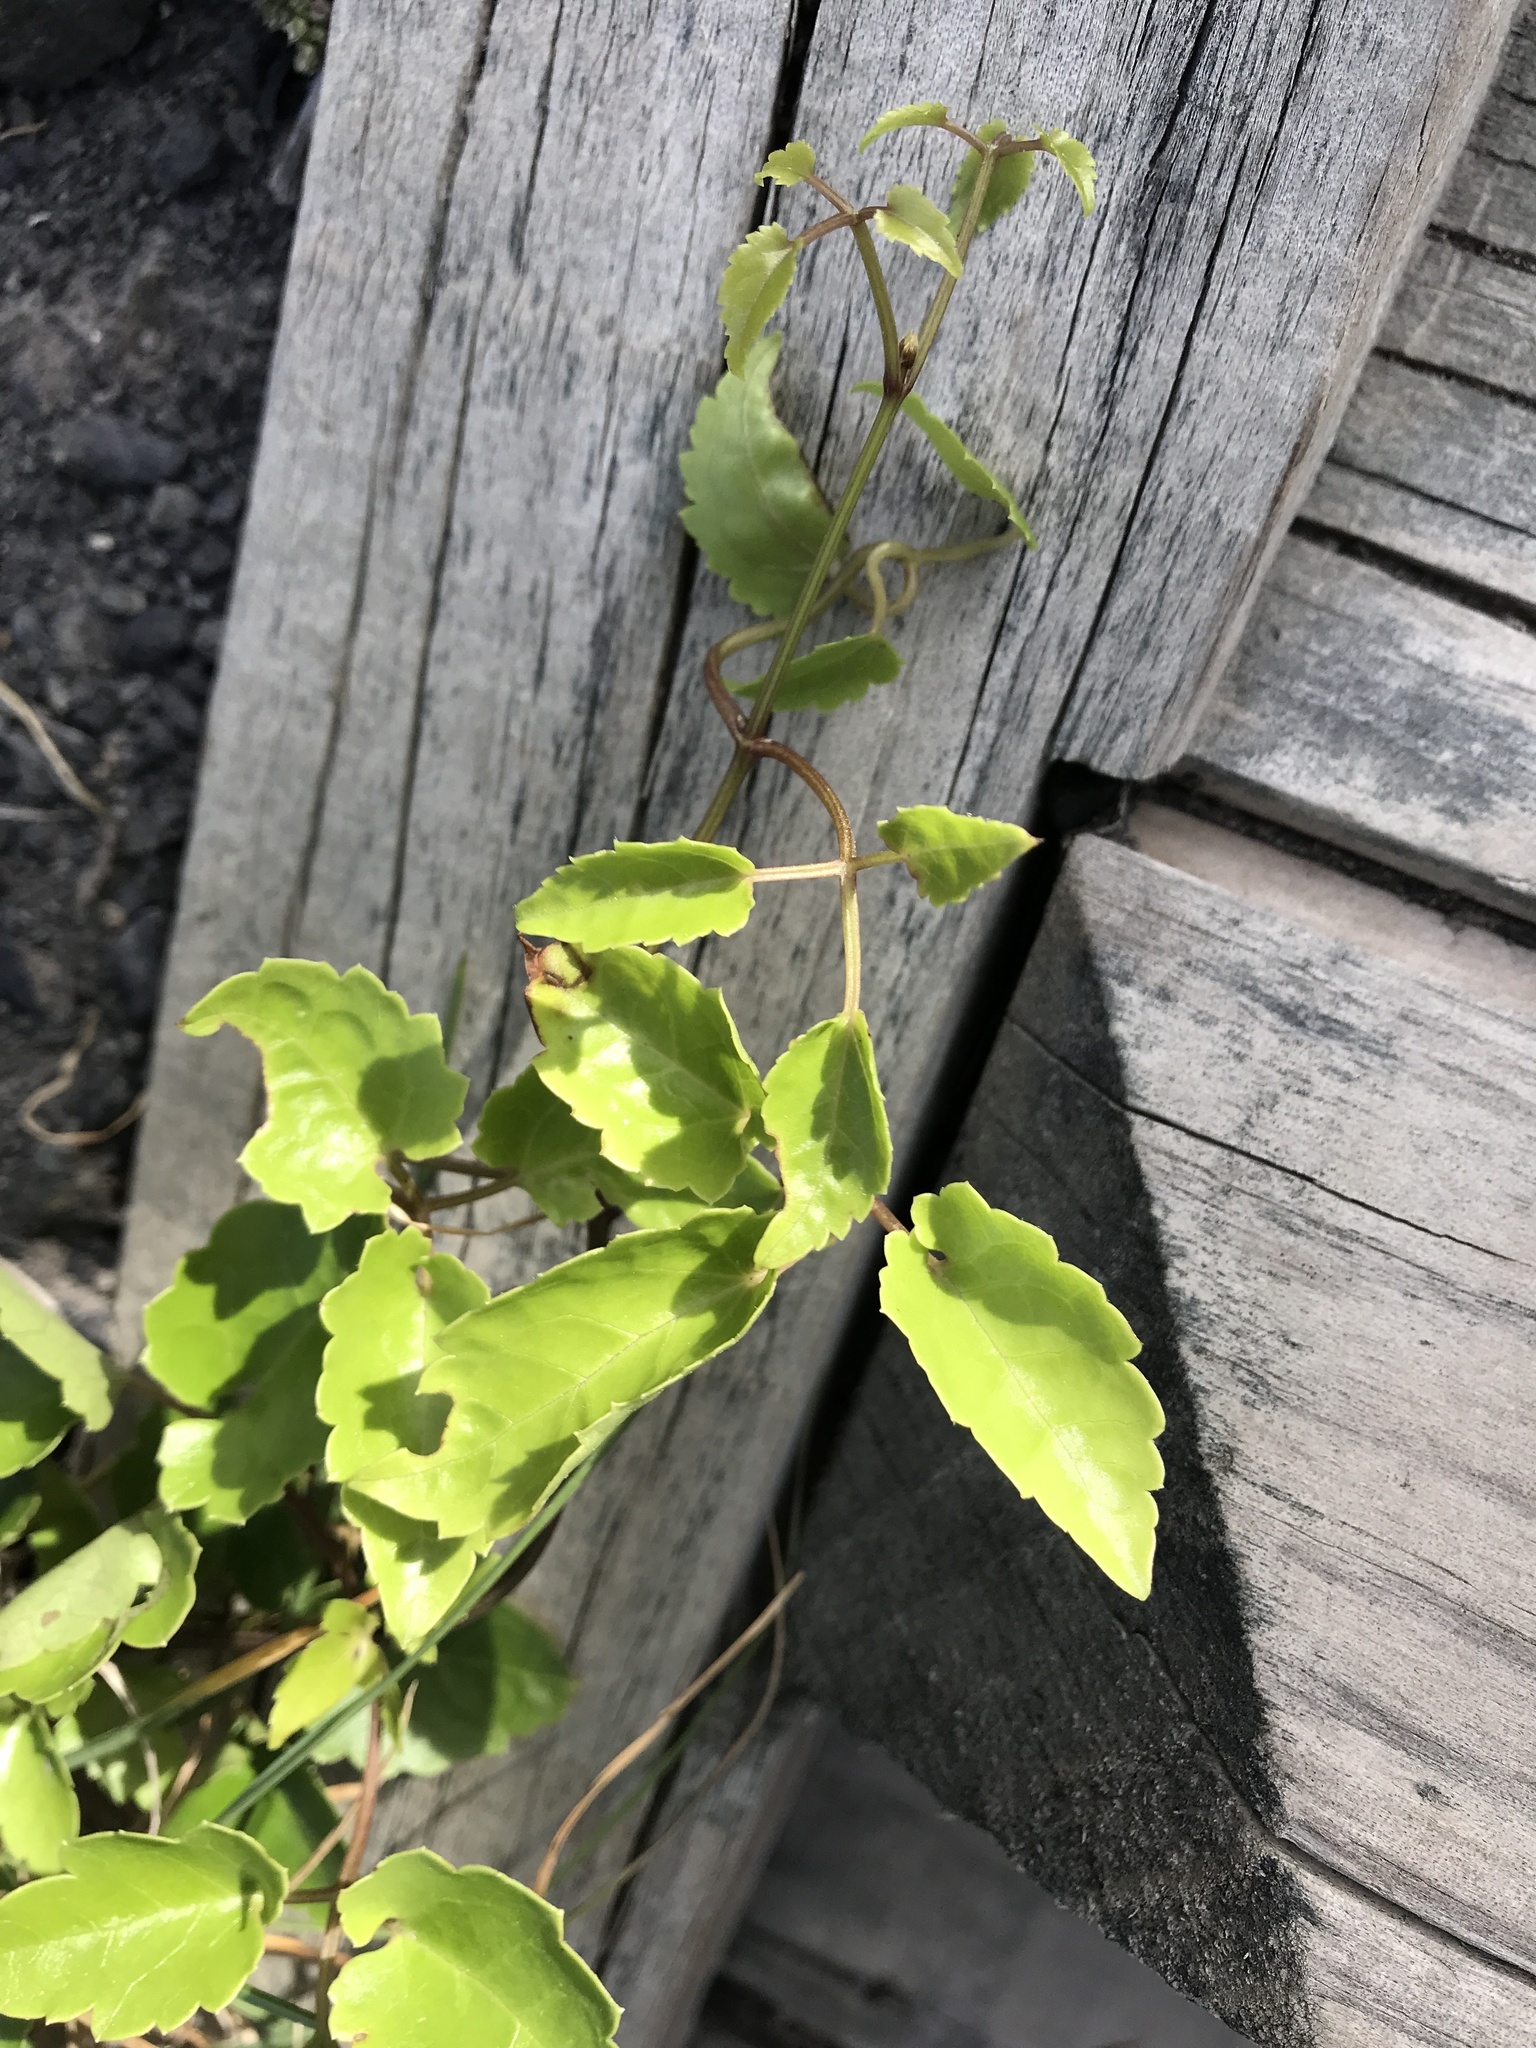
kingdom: Plantae
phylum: Tracheophyta
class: Magnoliopsida
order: Ranunculales
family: Ranunculaceae
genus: Clematis
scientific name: Clematis forsteri
